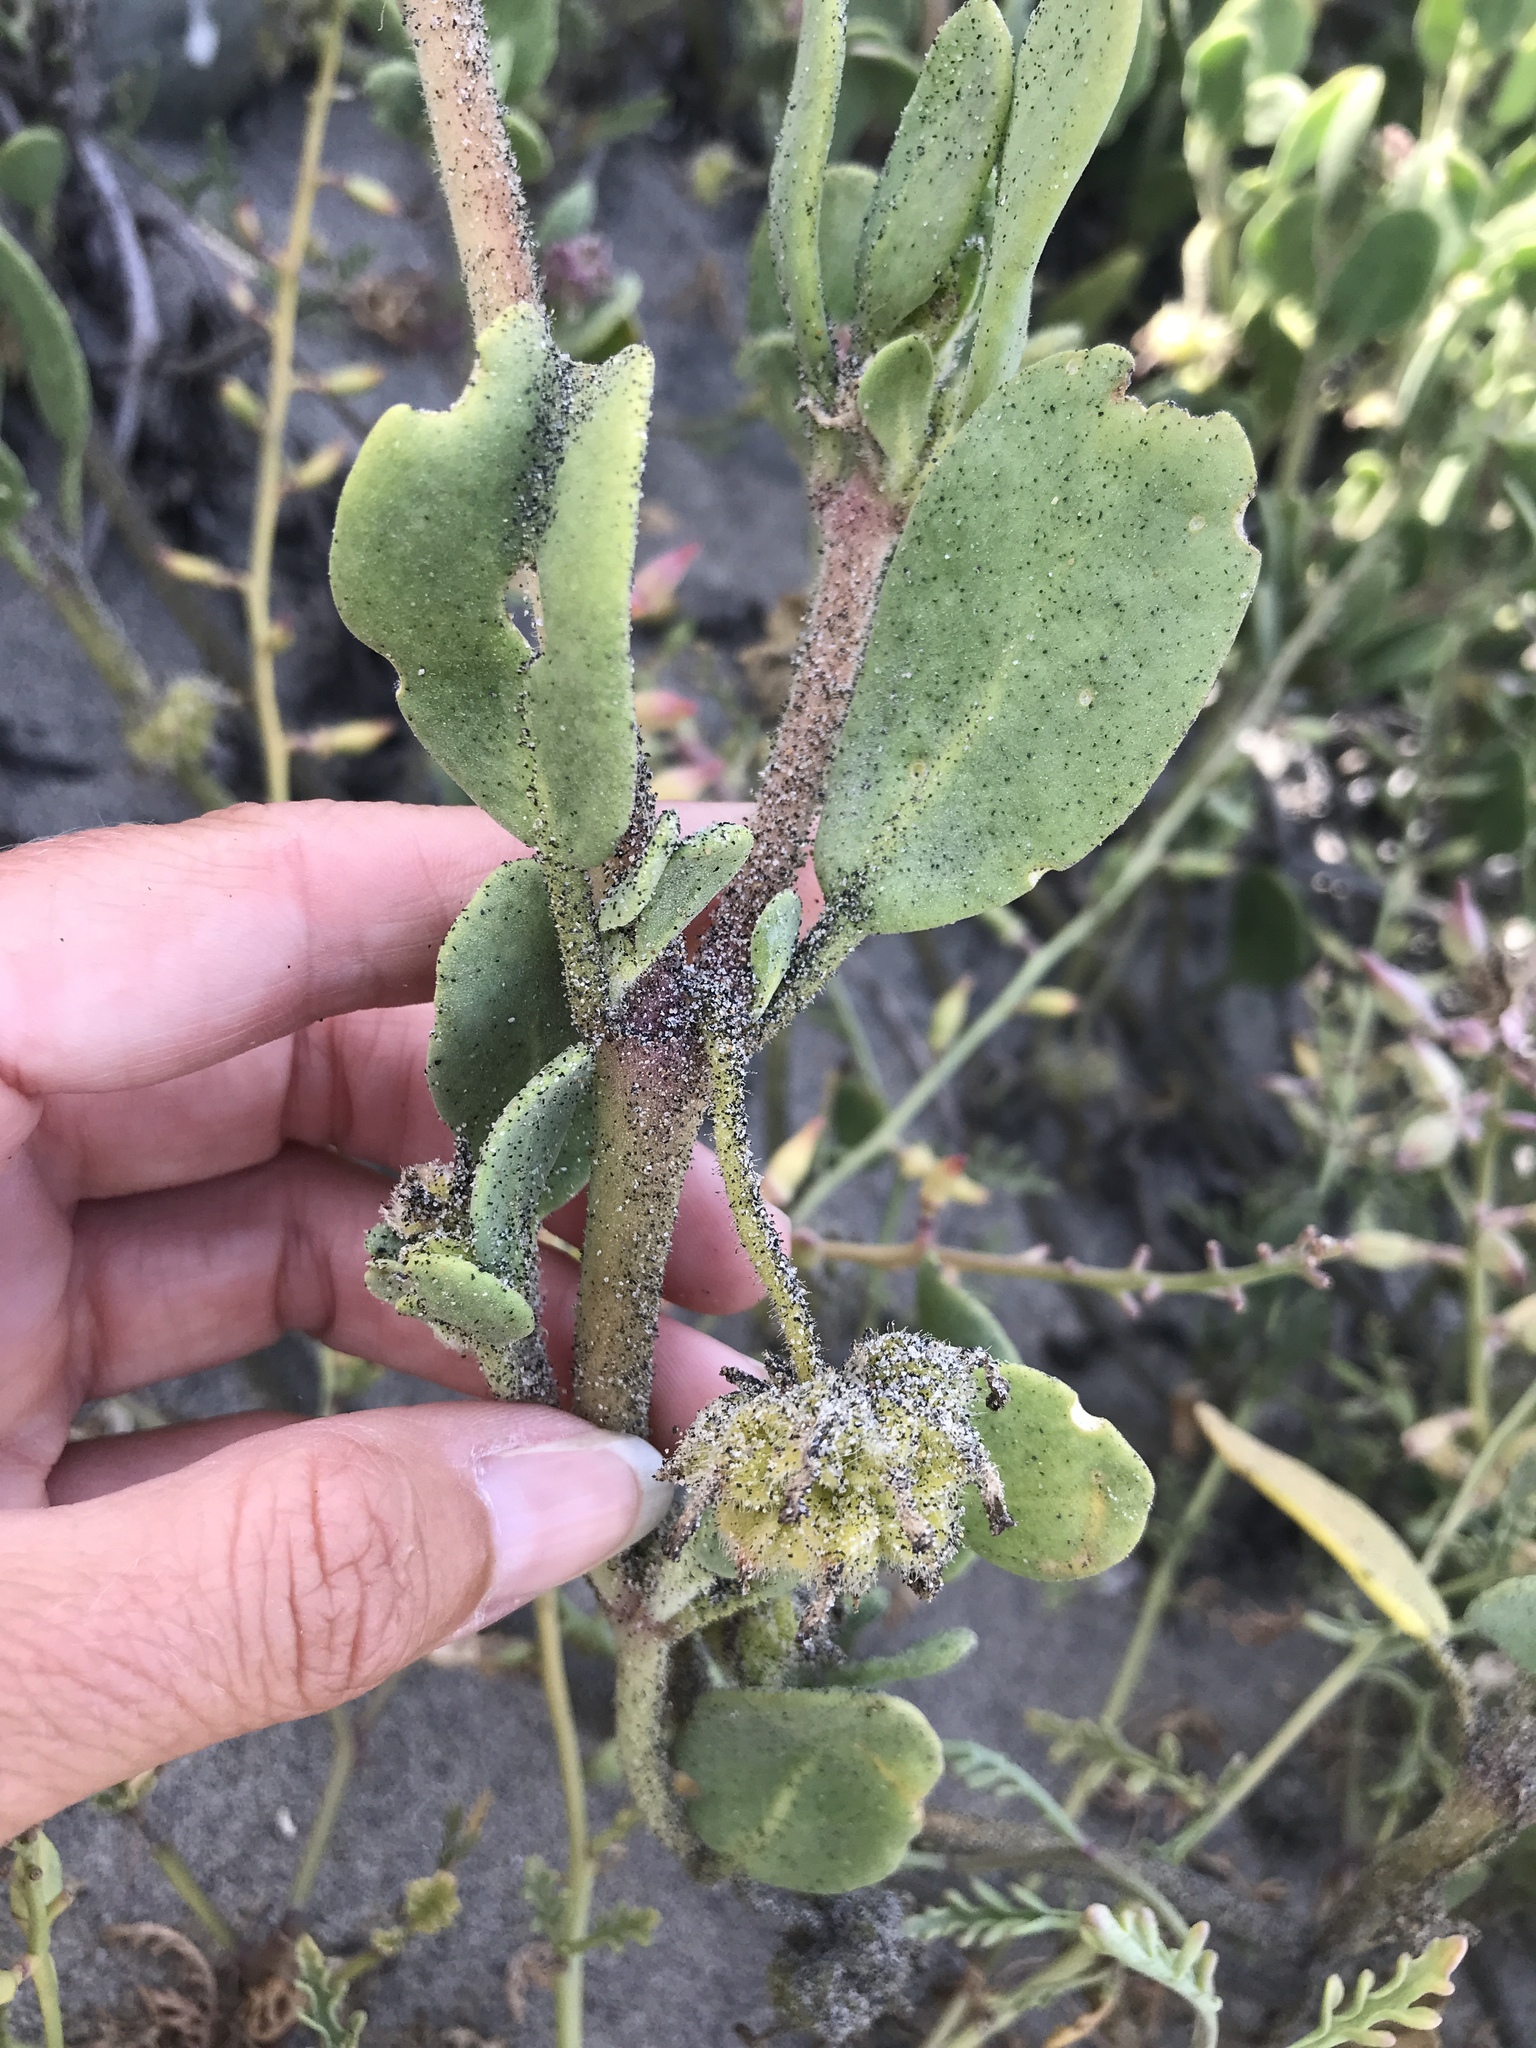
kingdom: Plantae
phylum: Tracheophyta
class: Magnoliopsida
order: Caryophyllales
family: Nyctaginaceae
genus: Abronia
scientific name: Abronia maritima
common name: Red sand-verbena
